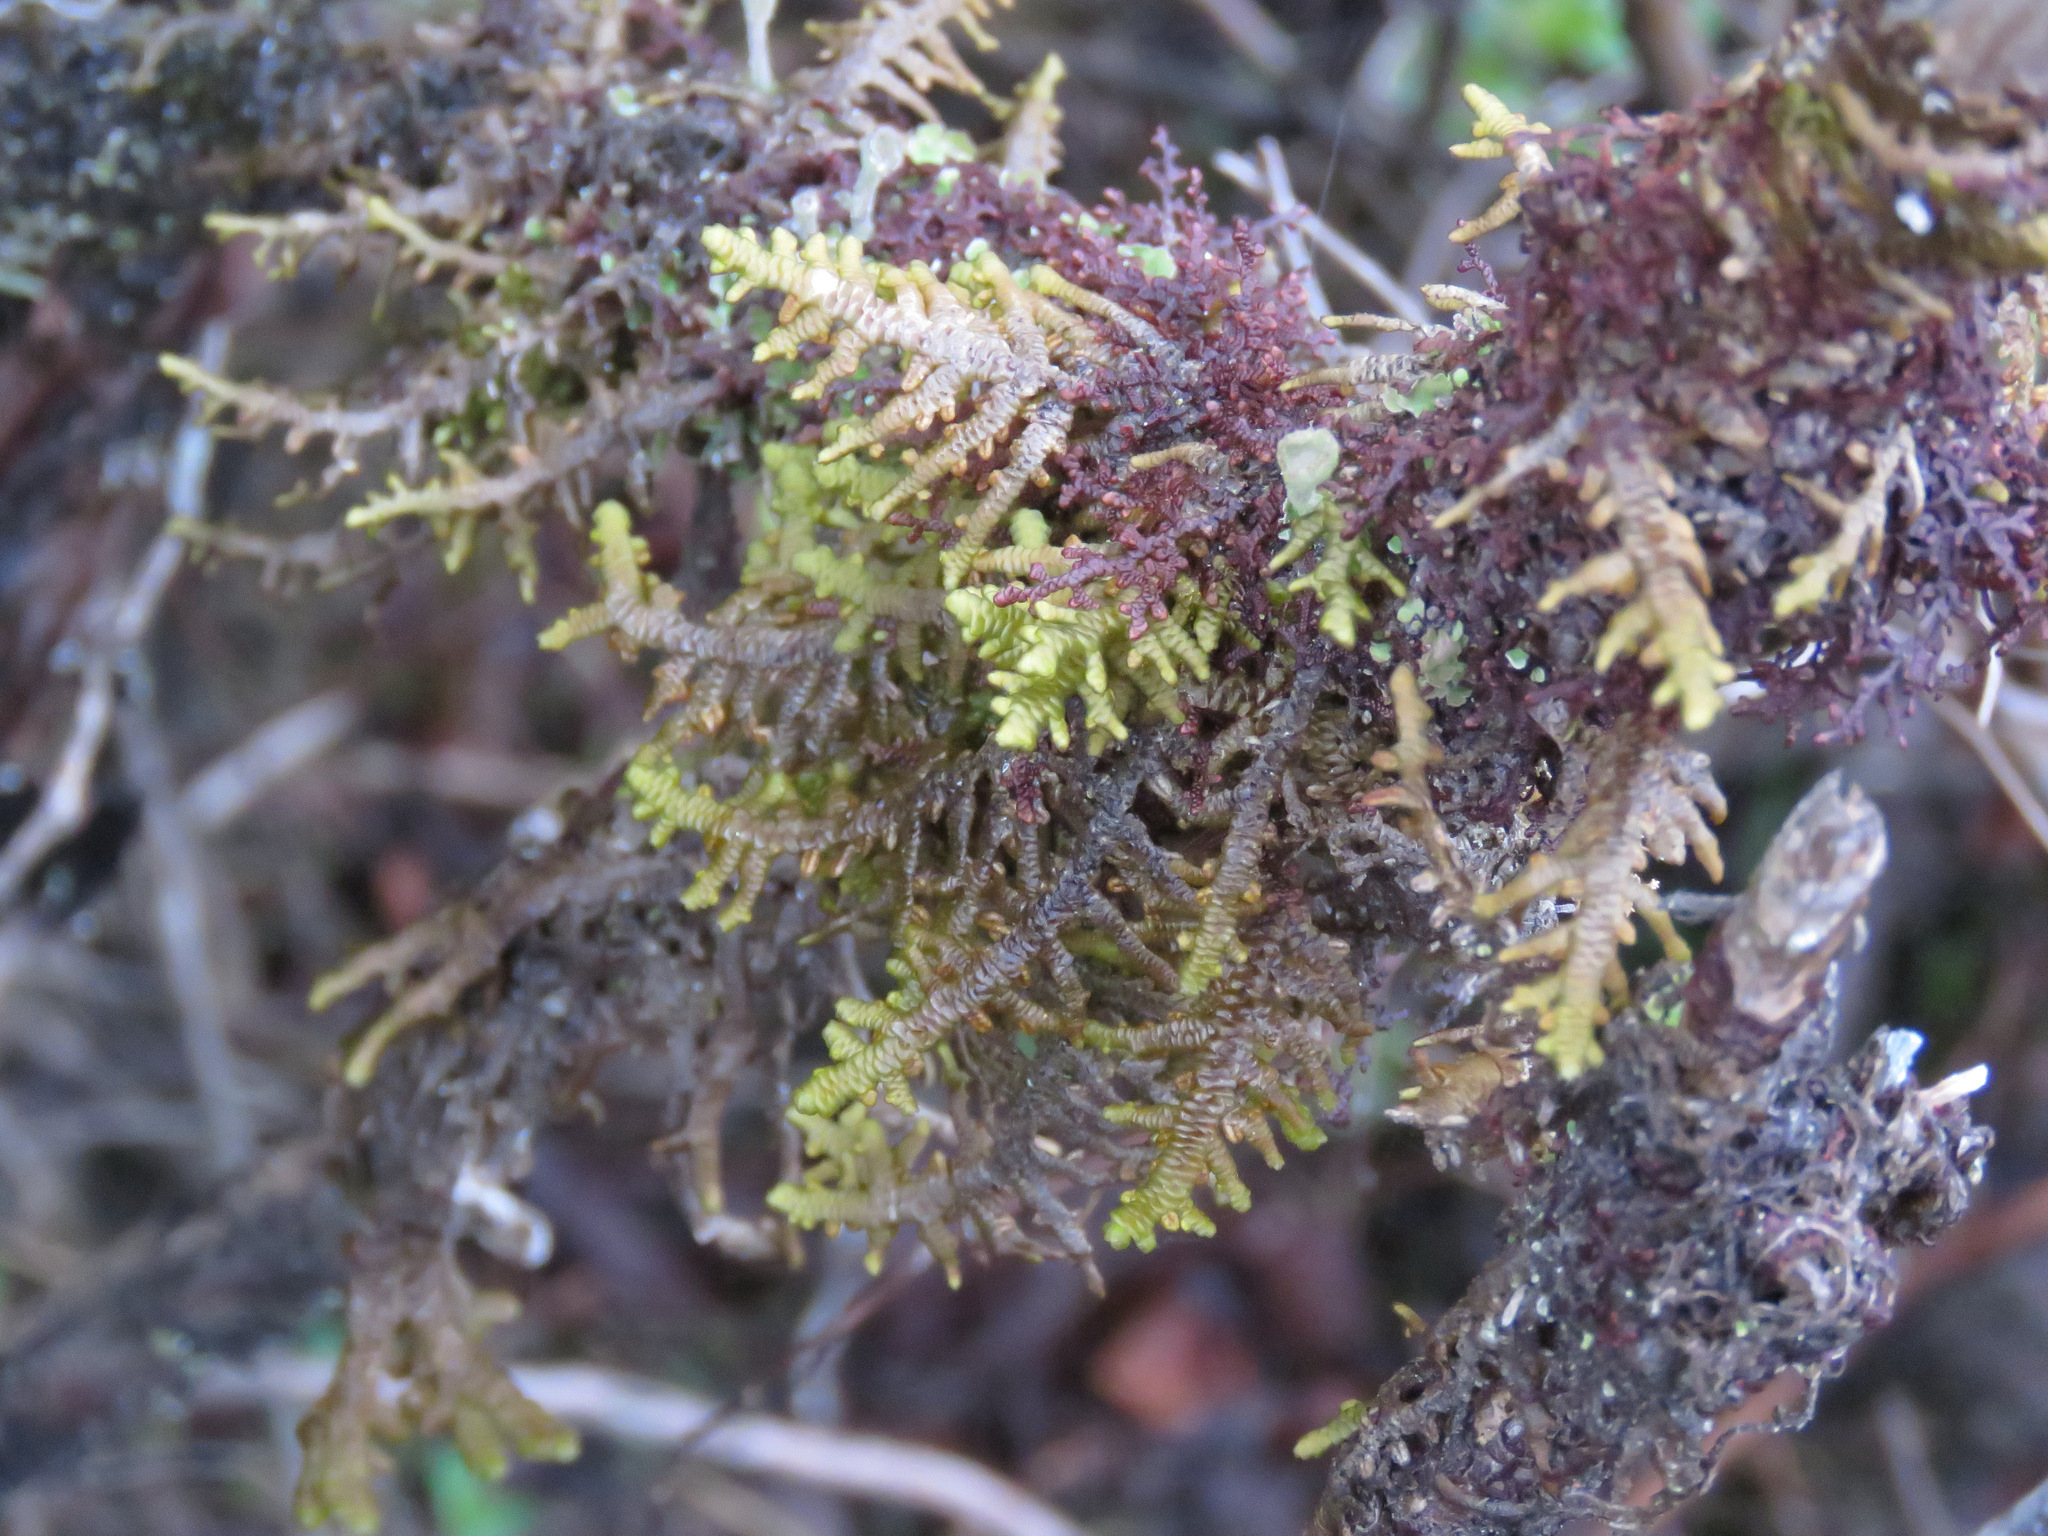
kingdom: Plantae
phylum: Marchantiophyta
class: Jungermanniopsida
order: Porellales
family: Porellaceae
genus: Porella
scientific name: Porella navicularis
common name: Tree ruffle liverwort
